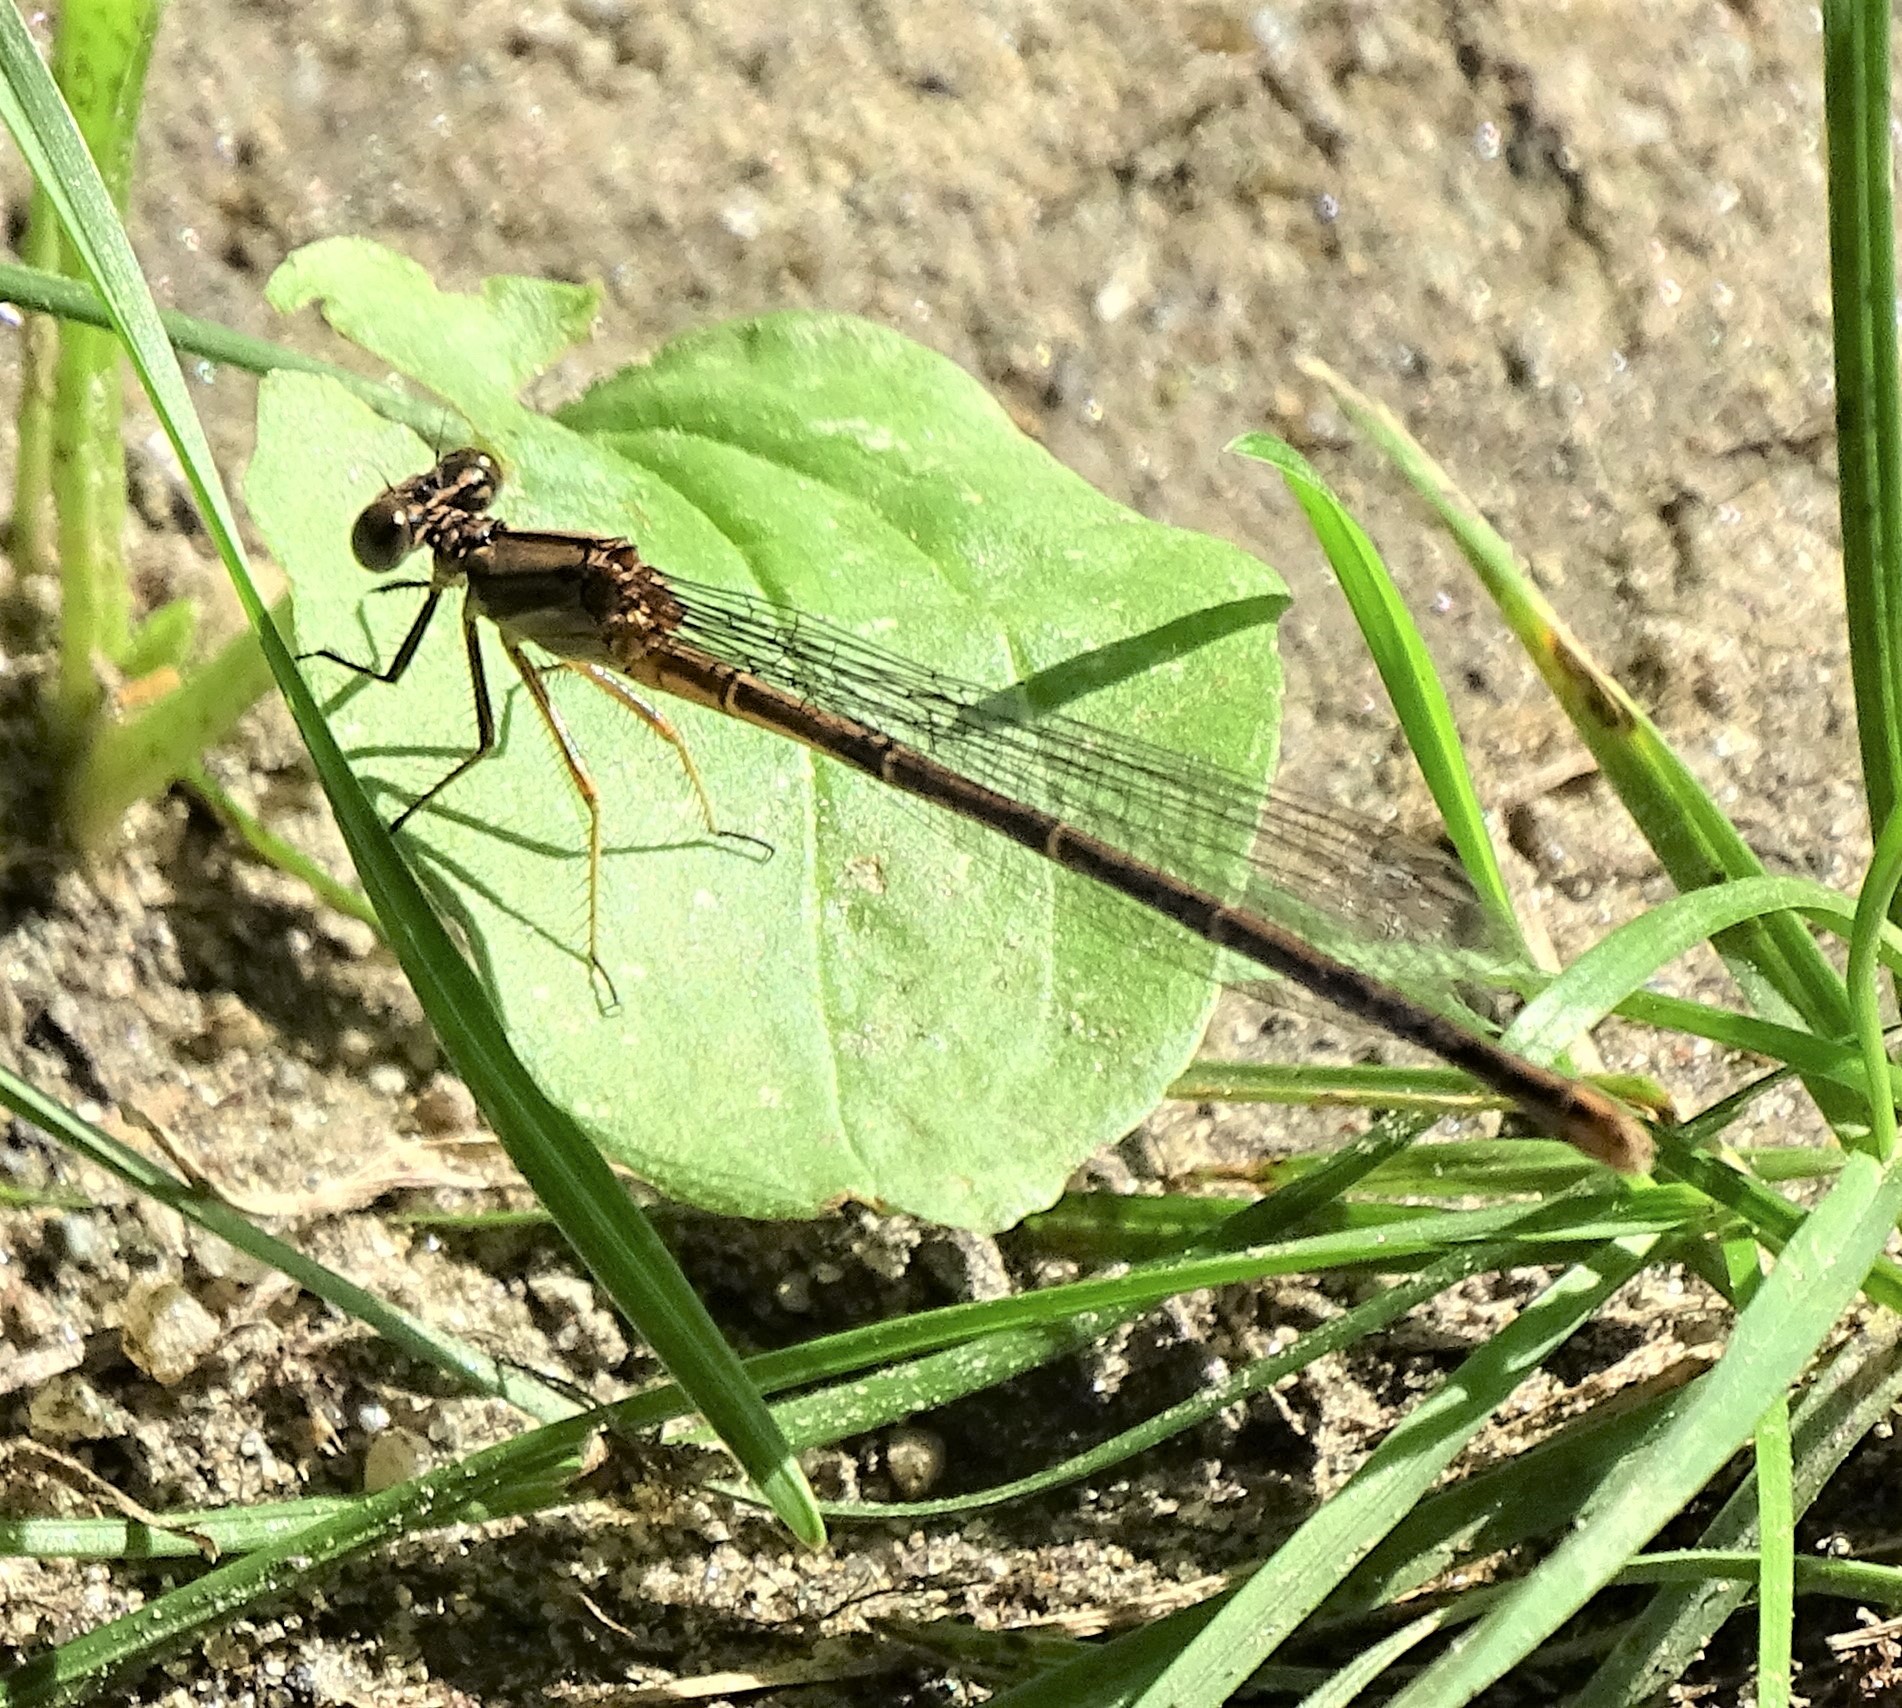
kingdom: Animalia
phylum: Arthropoda
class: Insecta
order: Odonata
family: Coenagrionidae
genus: Argia
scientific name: Argia moesta
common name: Powdered dancer
